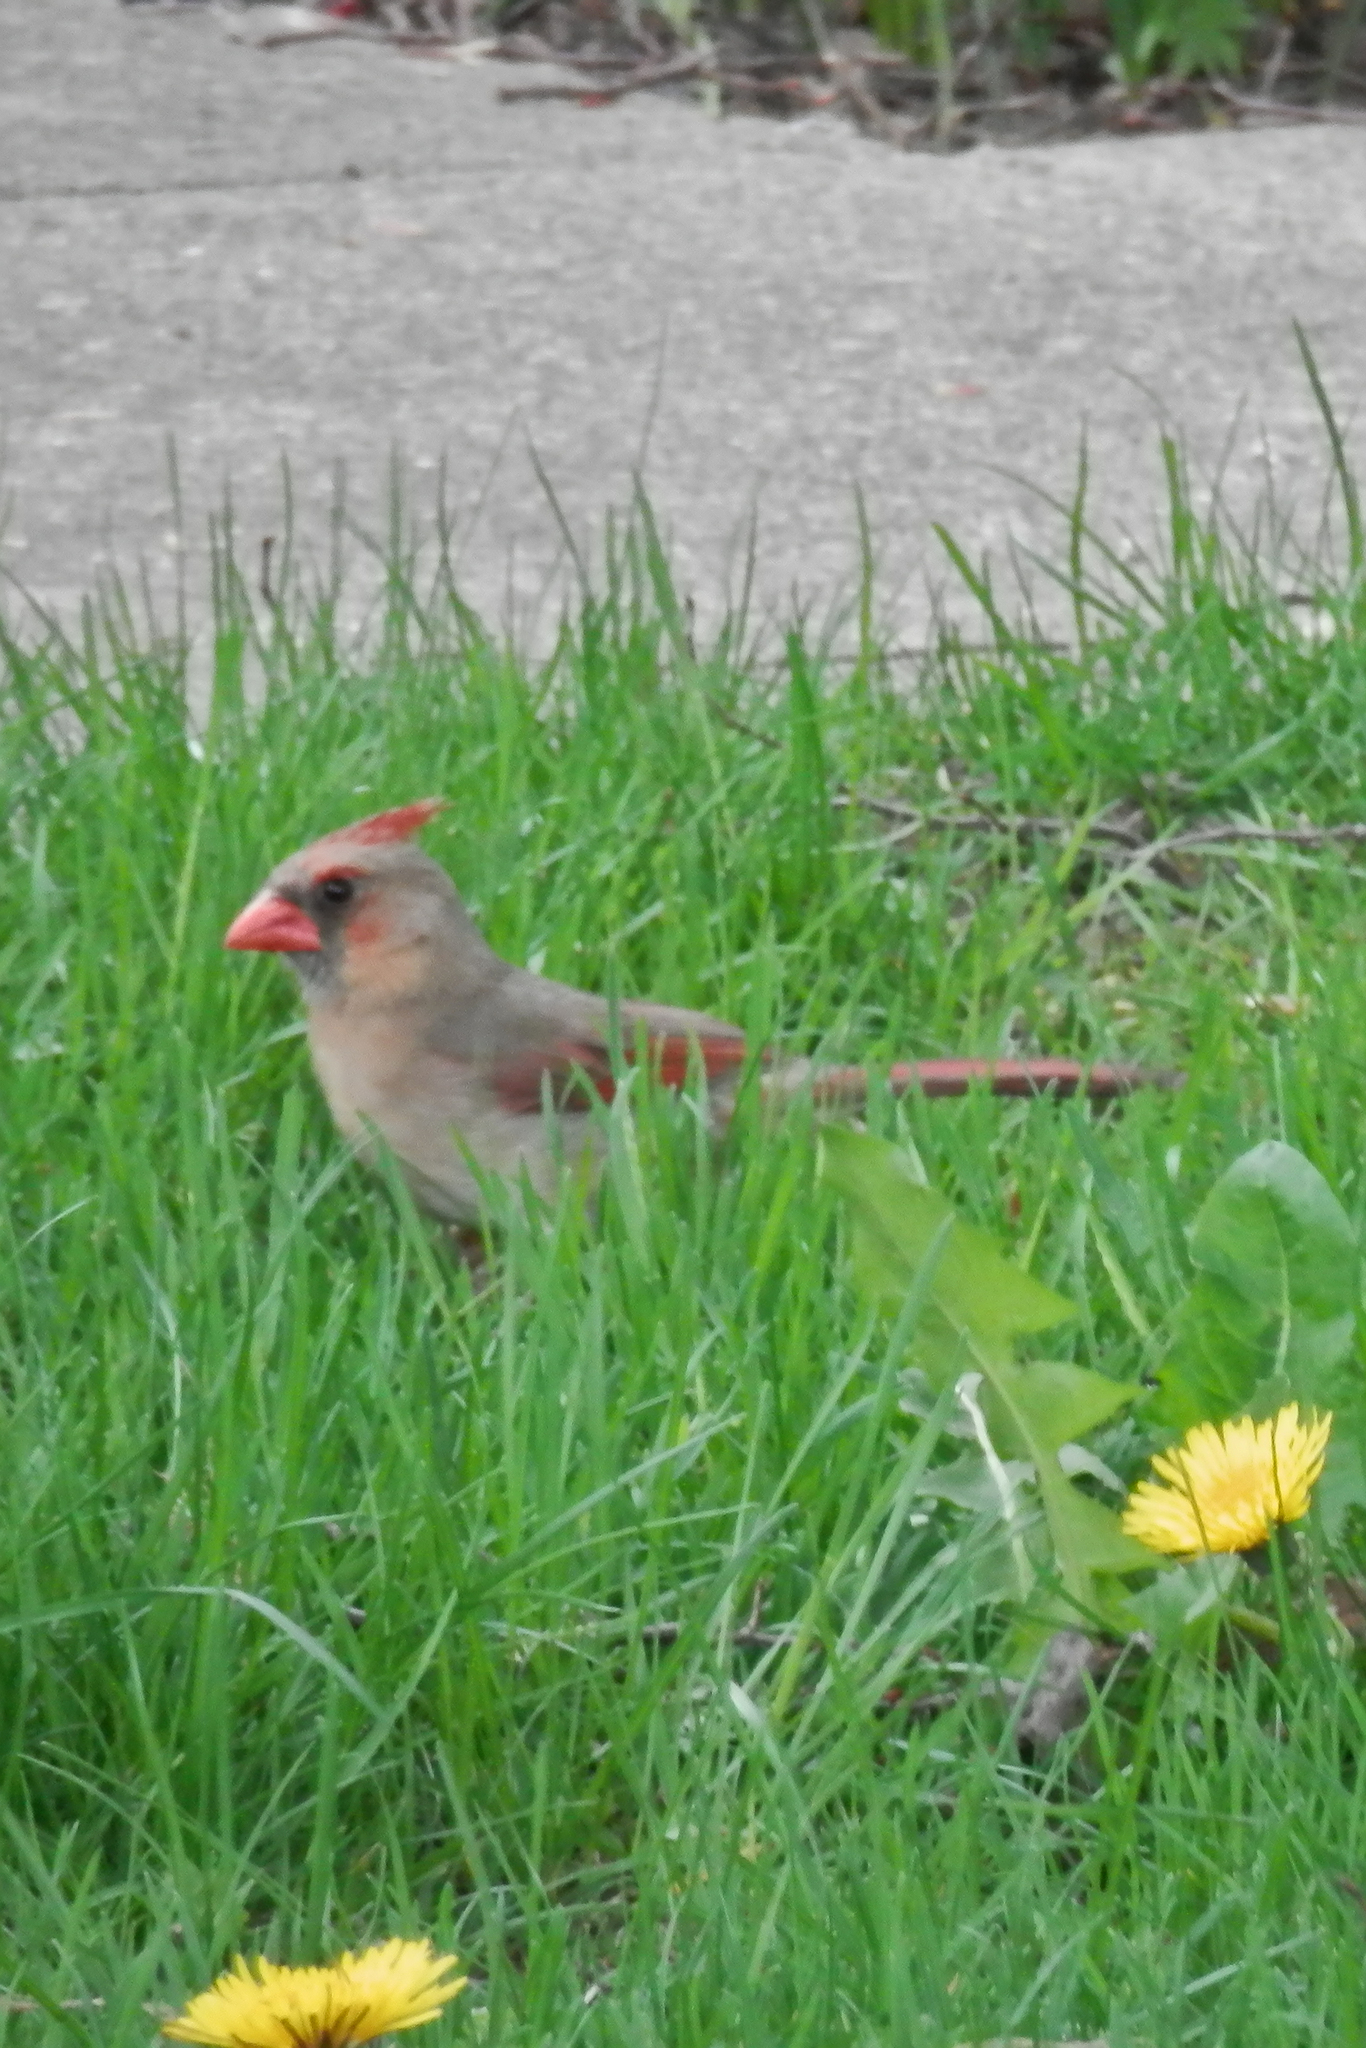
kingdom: Animalia
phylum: Chordata
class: Aves
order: Passeriformes
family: Cardinalidae
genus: Cardinalis
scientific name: Cardinalis cardinalis
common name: Northern cardinal
